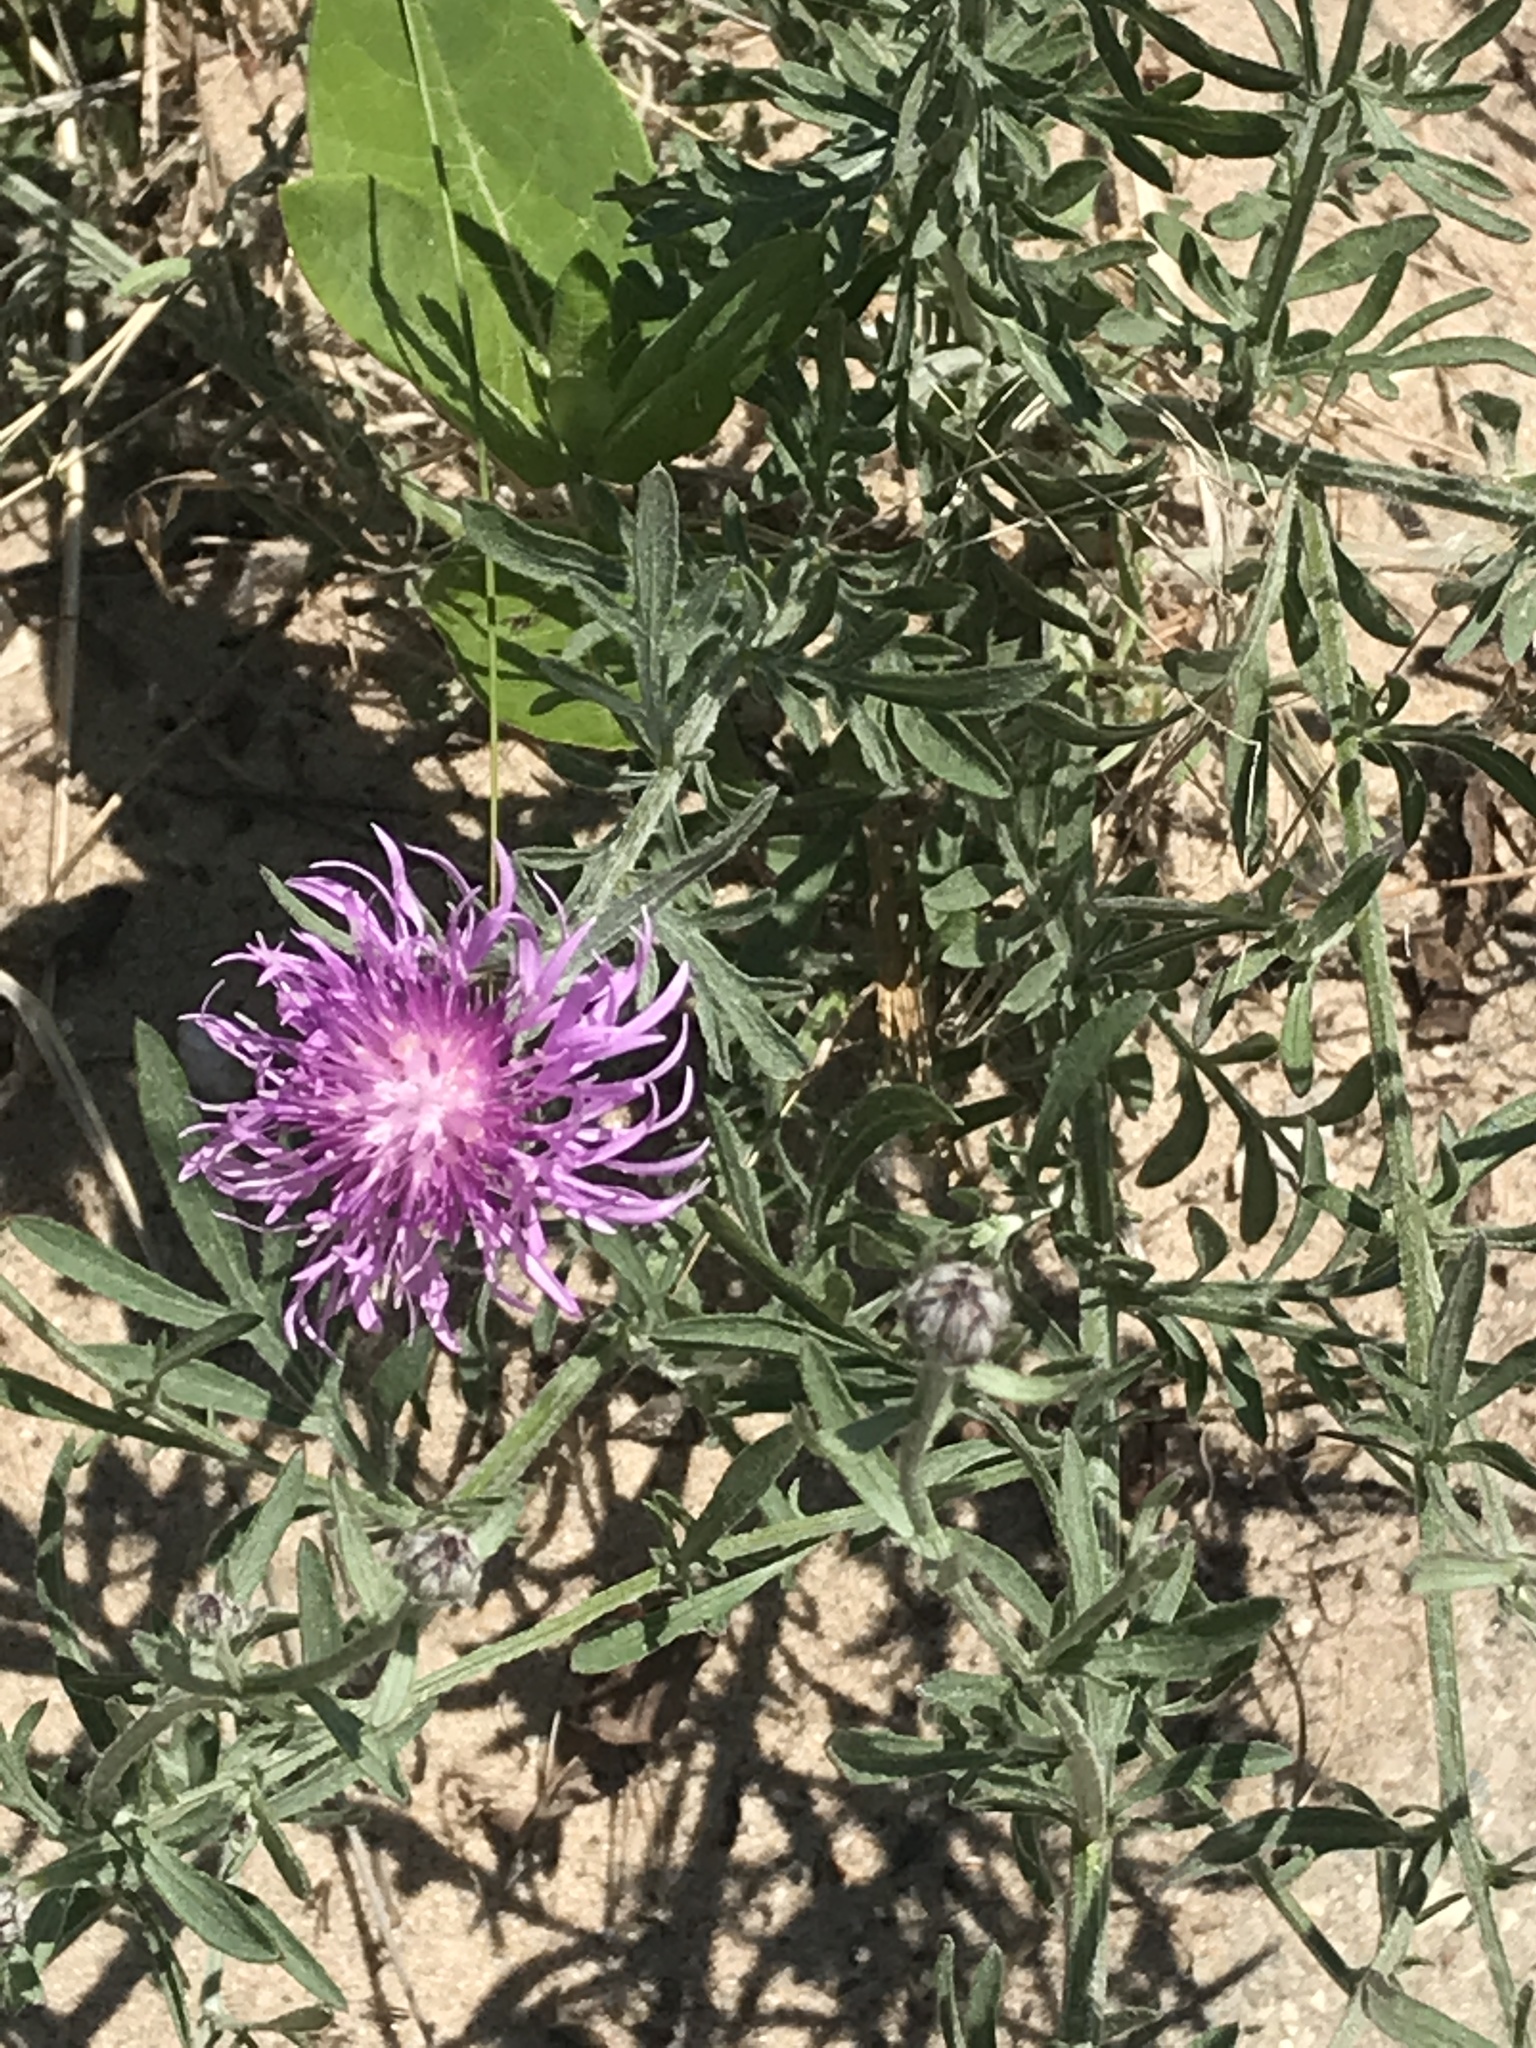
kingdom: Plantae
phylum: Tracheophyta
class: Magnoliopsida
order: Asterales
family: Asteraceae
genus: Centaurea
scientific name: Centaurea stoebe
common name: Spotted knapweed
